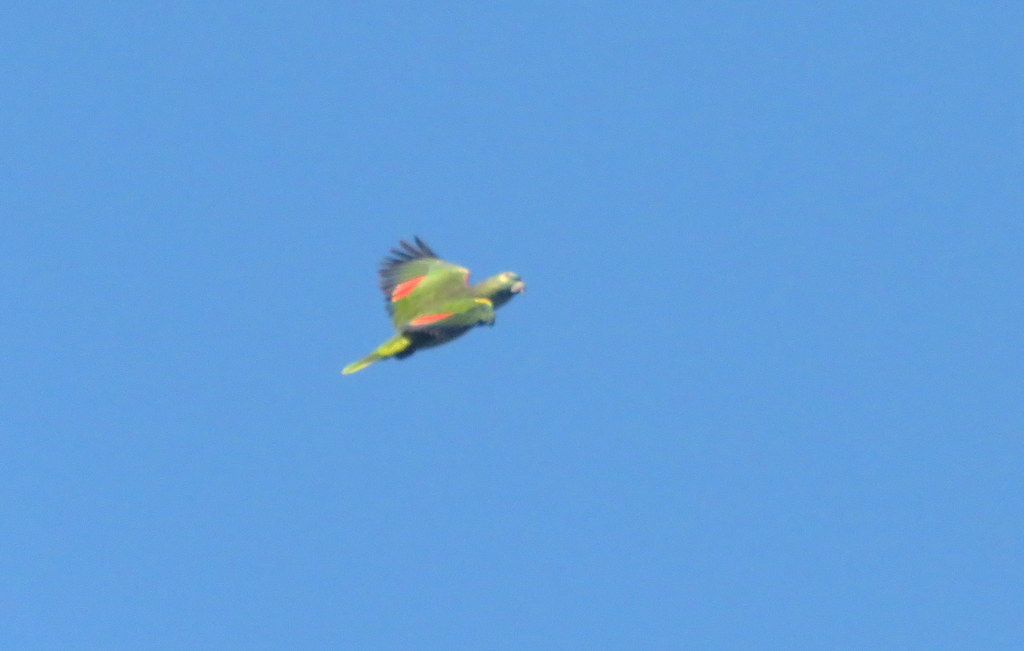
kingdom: Animalia
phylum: Chordata
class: Aves
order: Psittaciformes
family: Psittacidae
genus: Amazona
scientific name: Amazona aestiva
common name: Turquoise-fronted amazon
